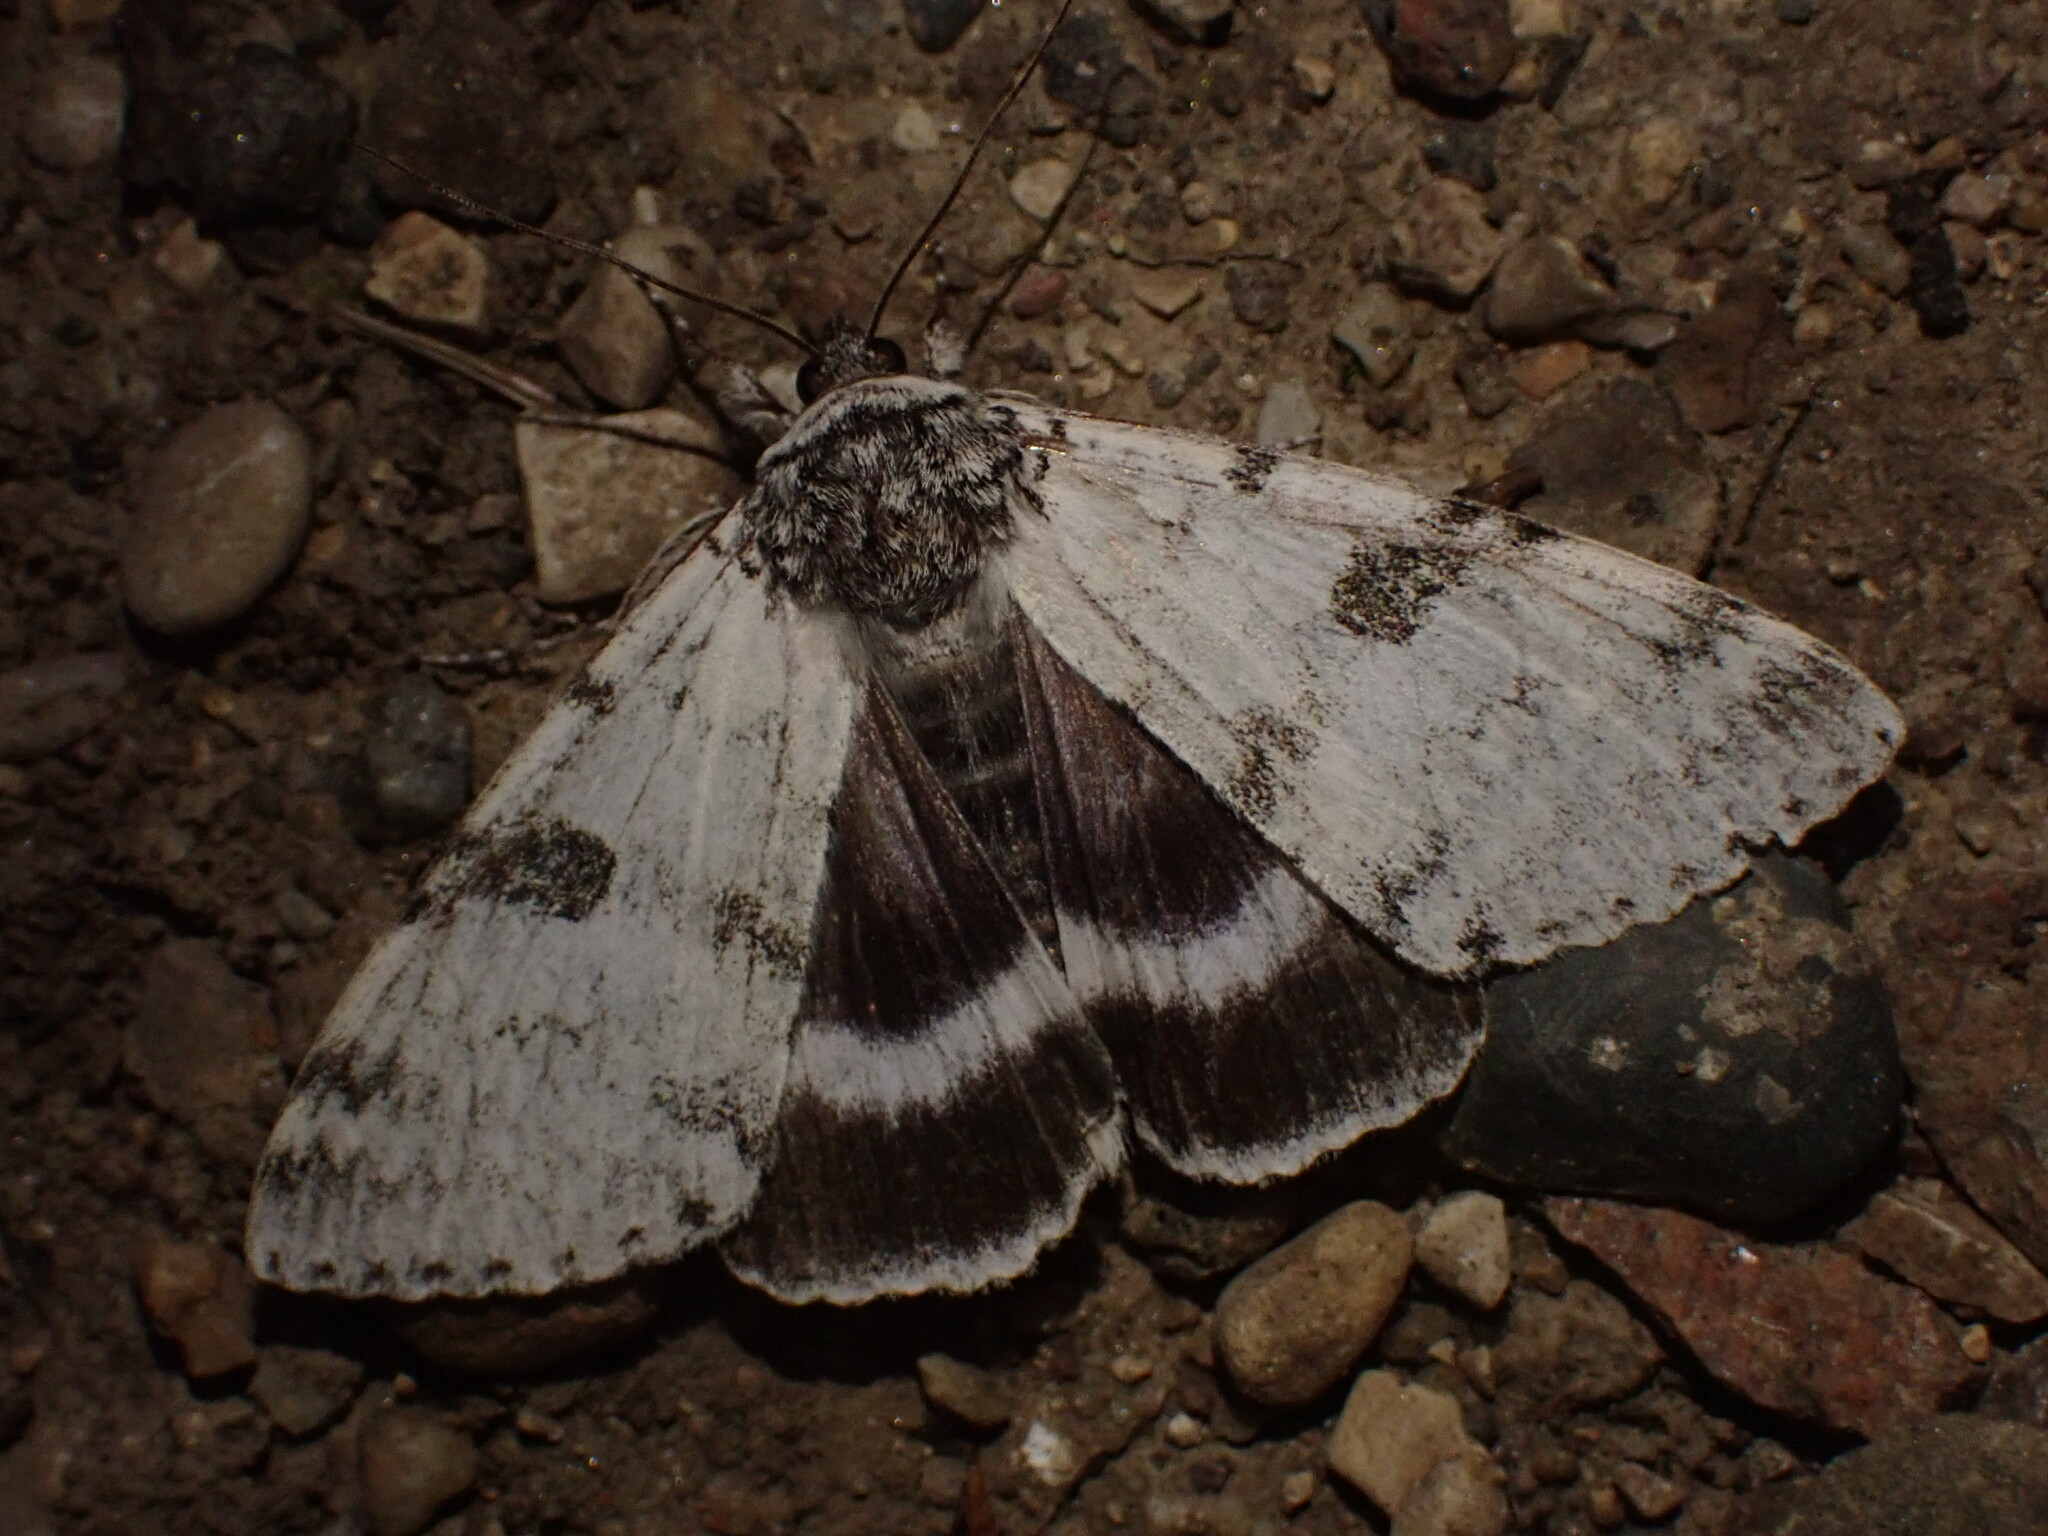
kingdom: Animalia
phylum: Arthropoda
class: Insecta
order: Lepidoptera
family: Erebidae
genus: Catocala
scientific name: Catocala relicta
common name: White underwing
